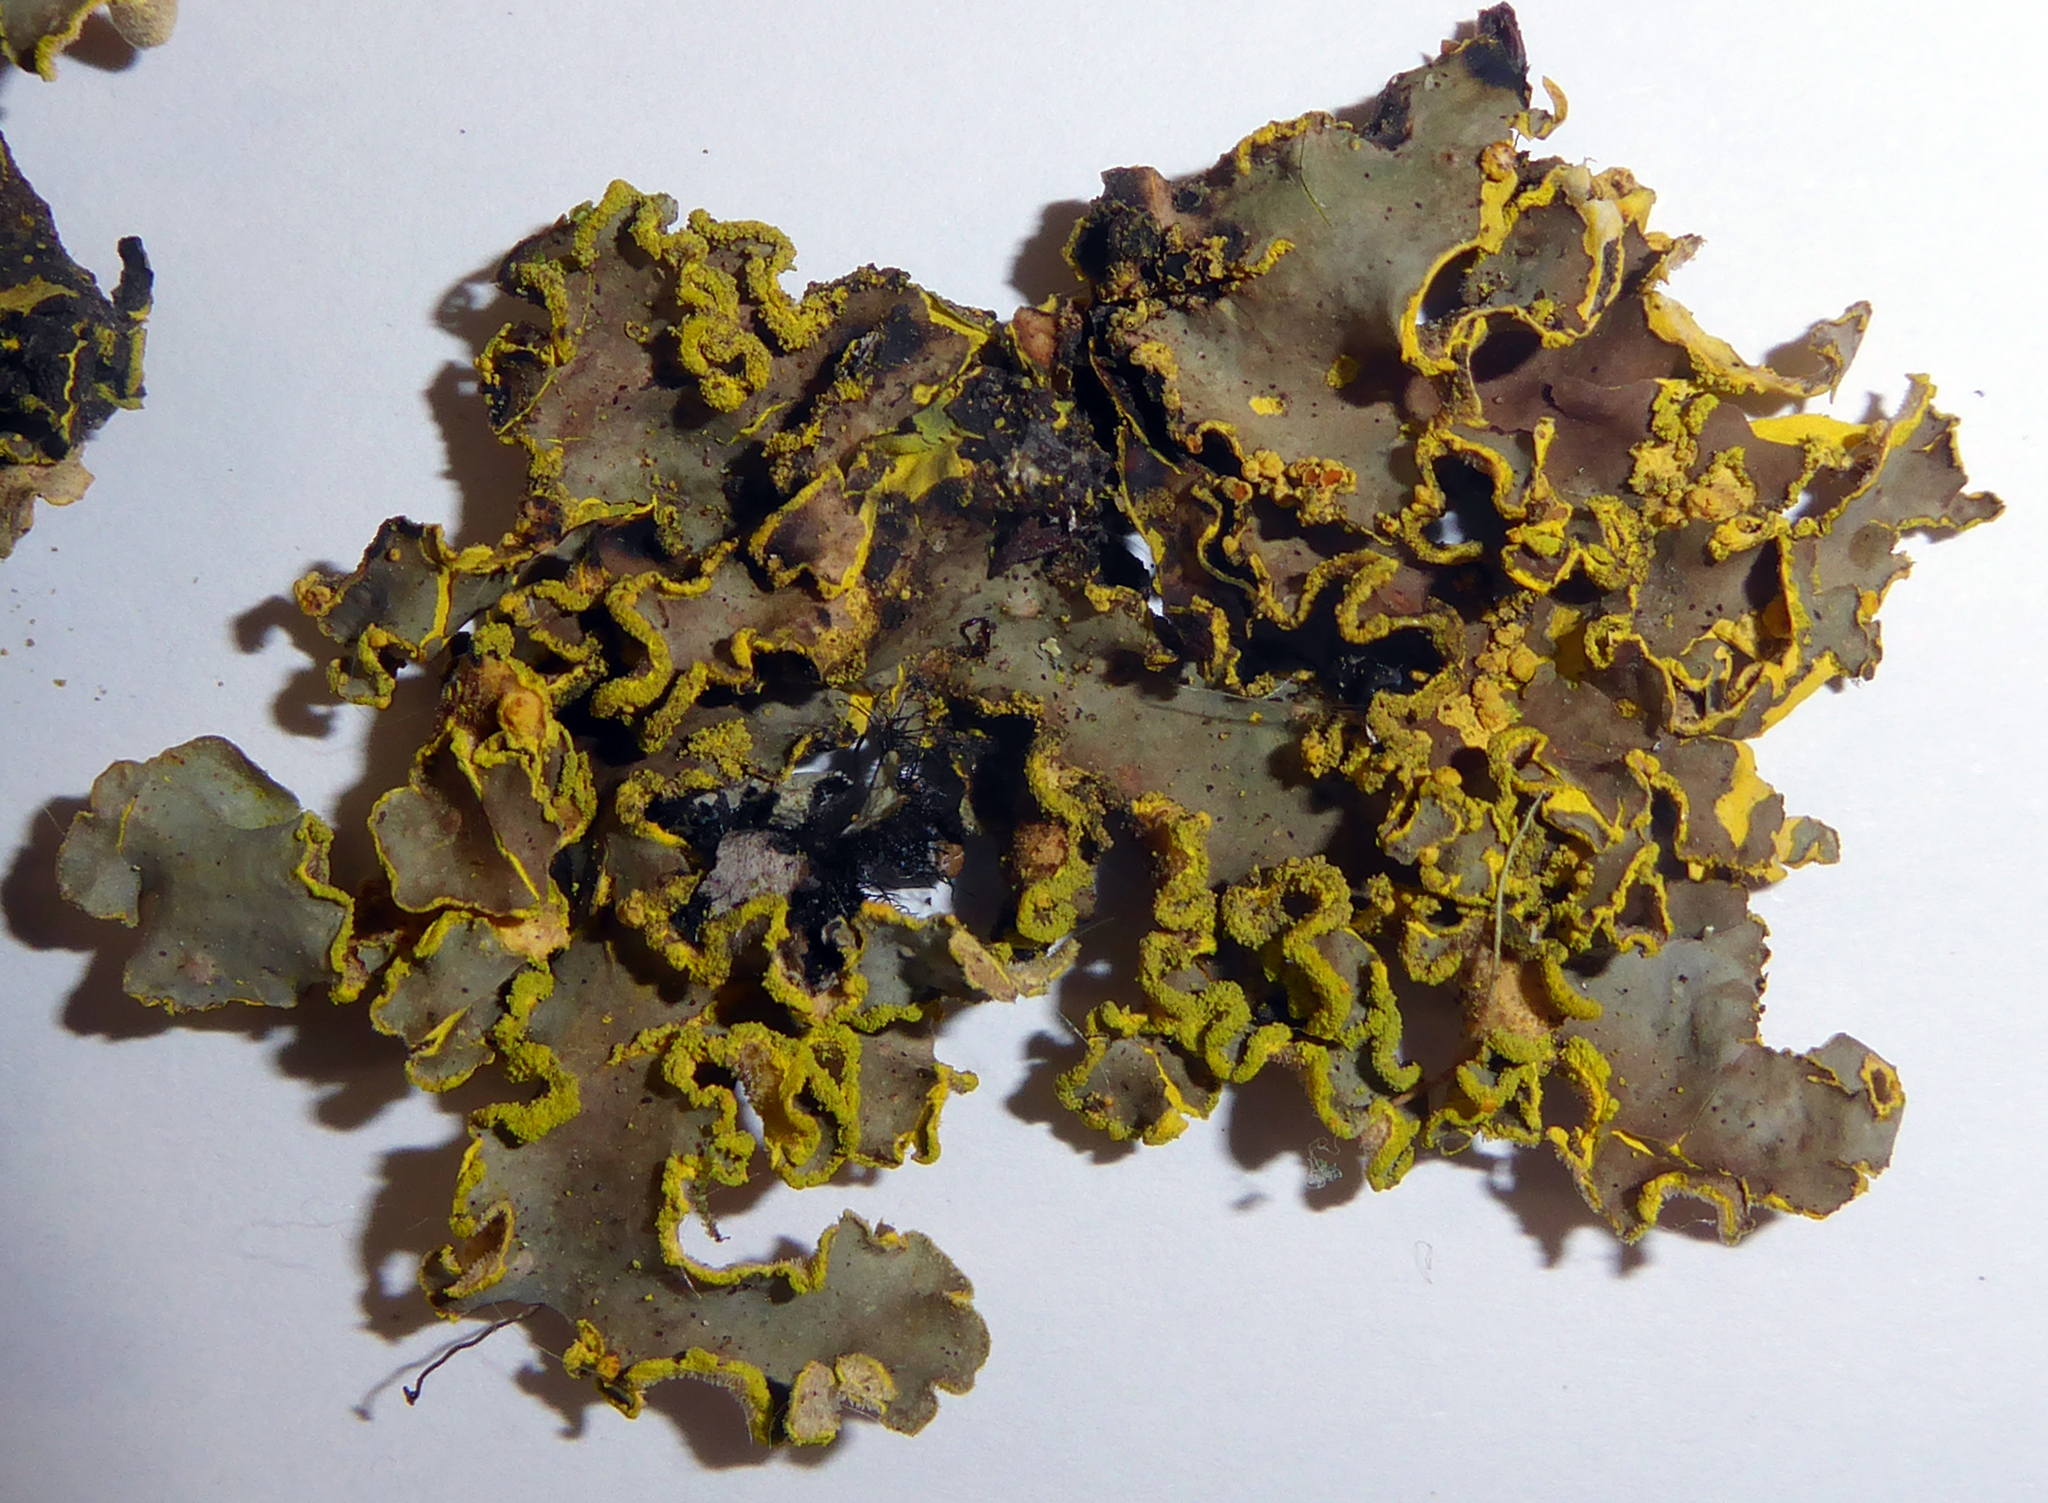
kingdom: Fungi
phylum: Ascomycota
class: Lecanoromycetes
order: Peltigerales
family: Lobariaceae
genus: Pseudocyphellaria
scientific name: Pseudocyphellaria aurata
